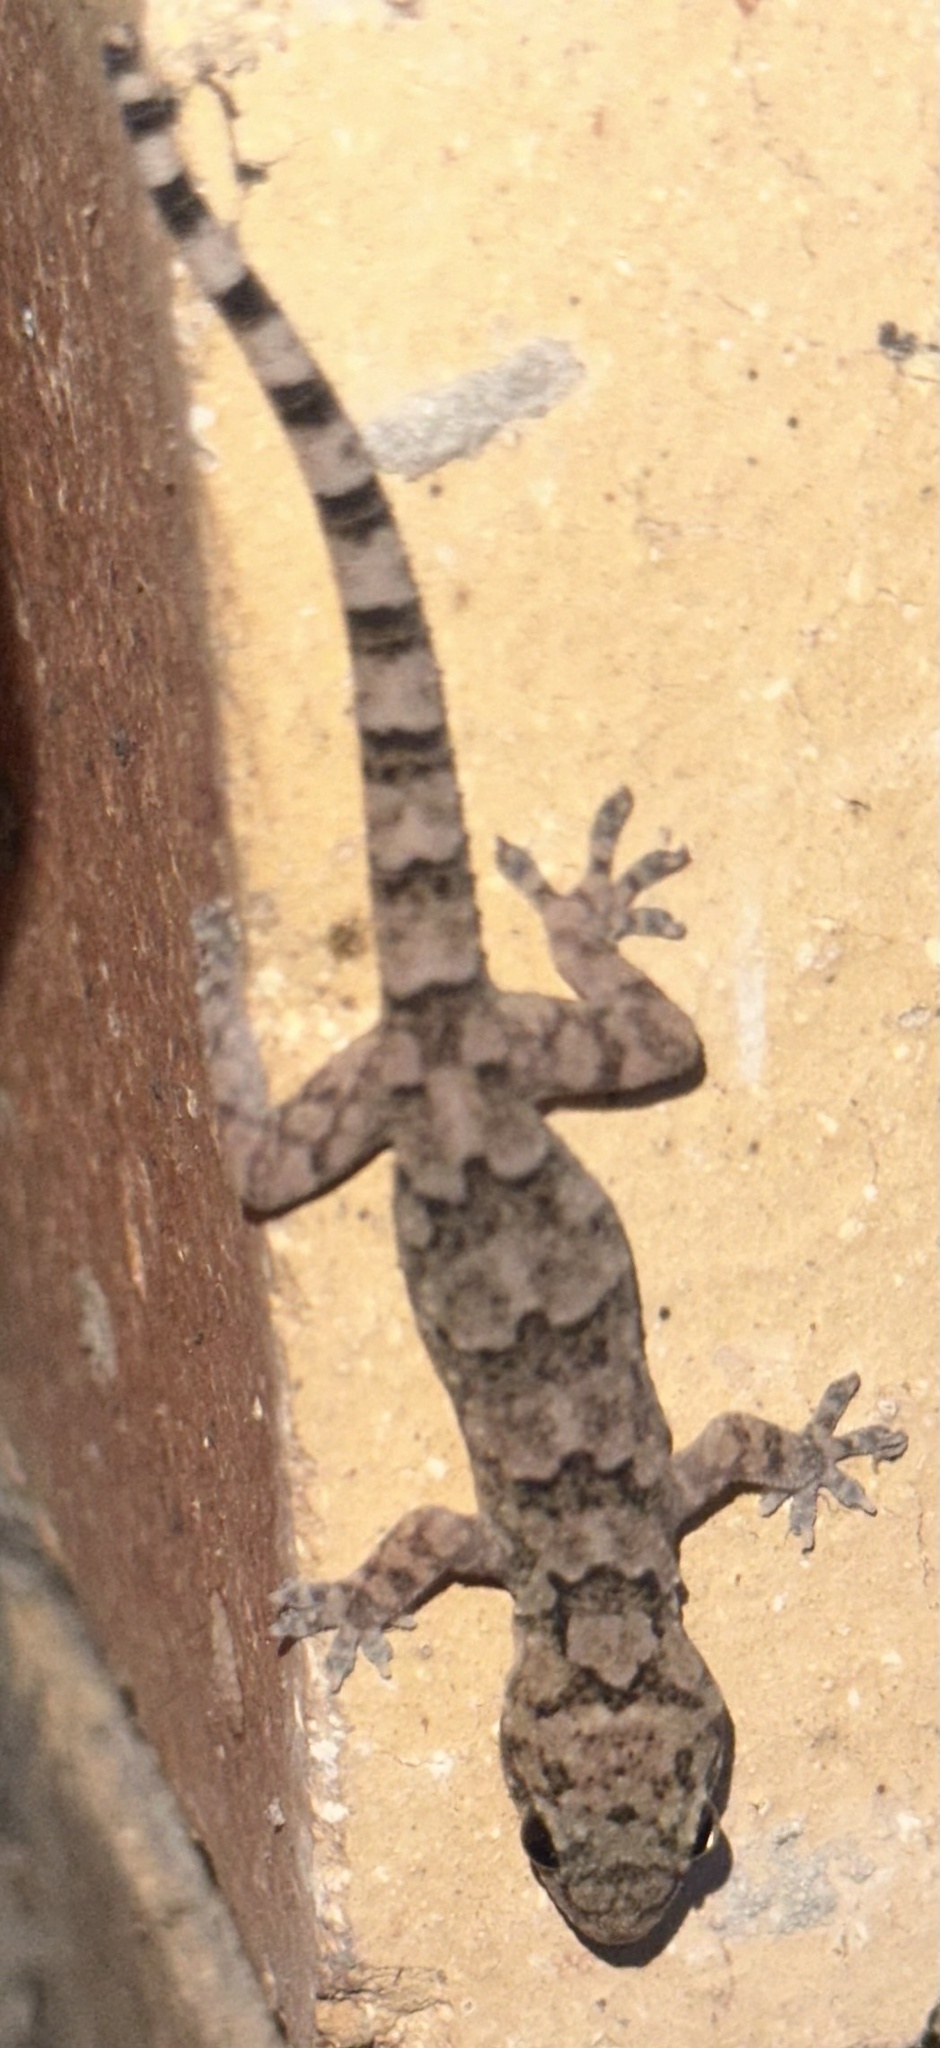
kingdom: Animalia
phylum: Chordata
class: Squamata
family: Gekkonidae
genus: Hemidactylus
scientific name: Hemidactylus mabouia
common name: House gecko
